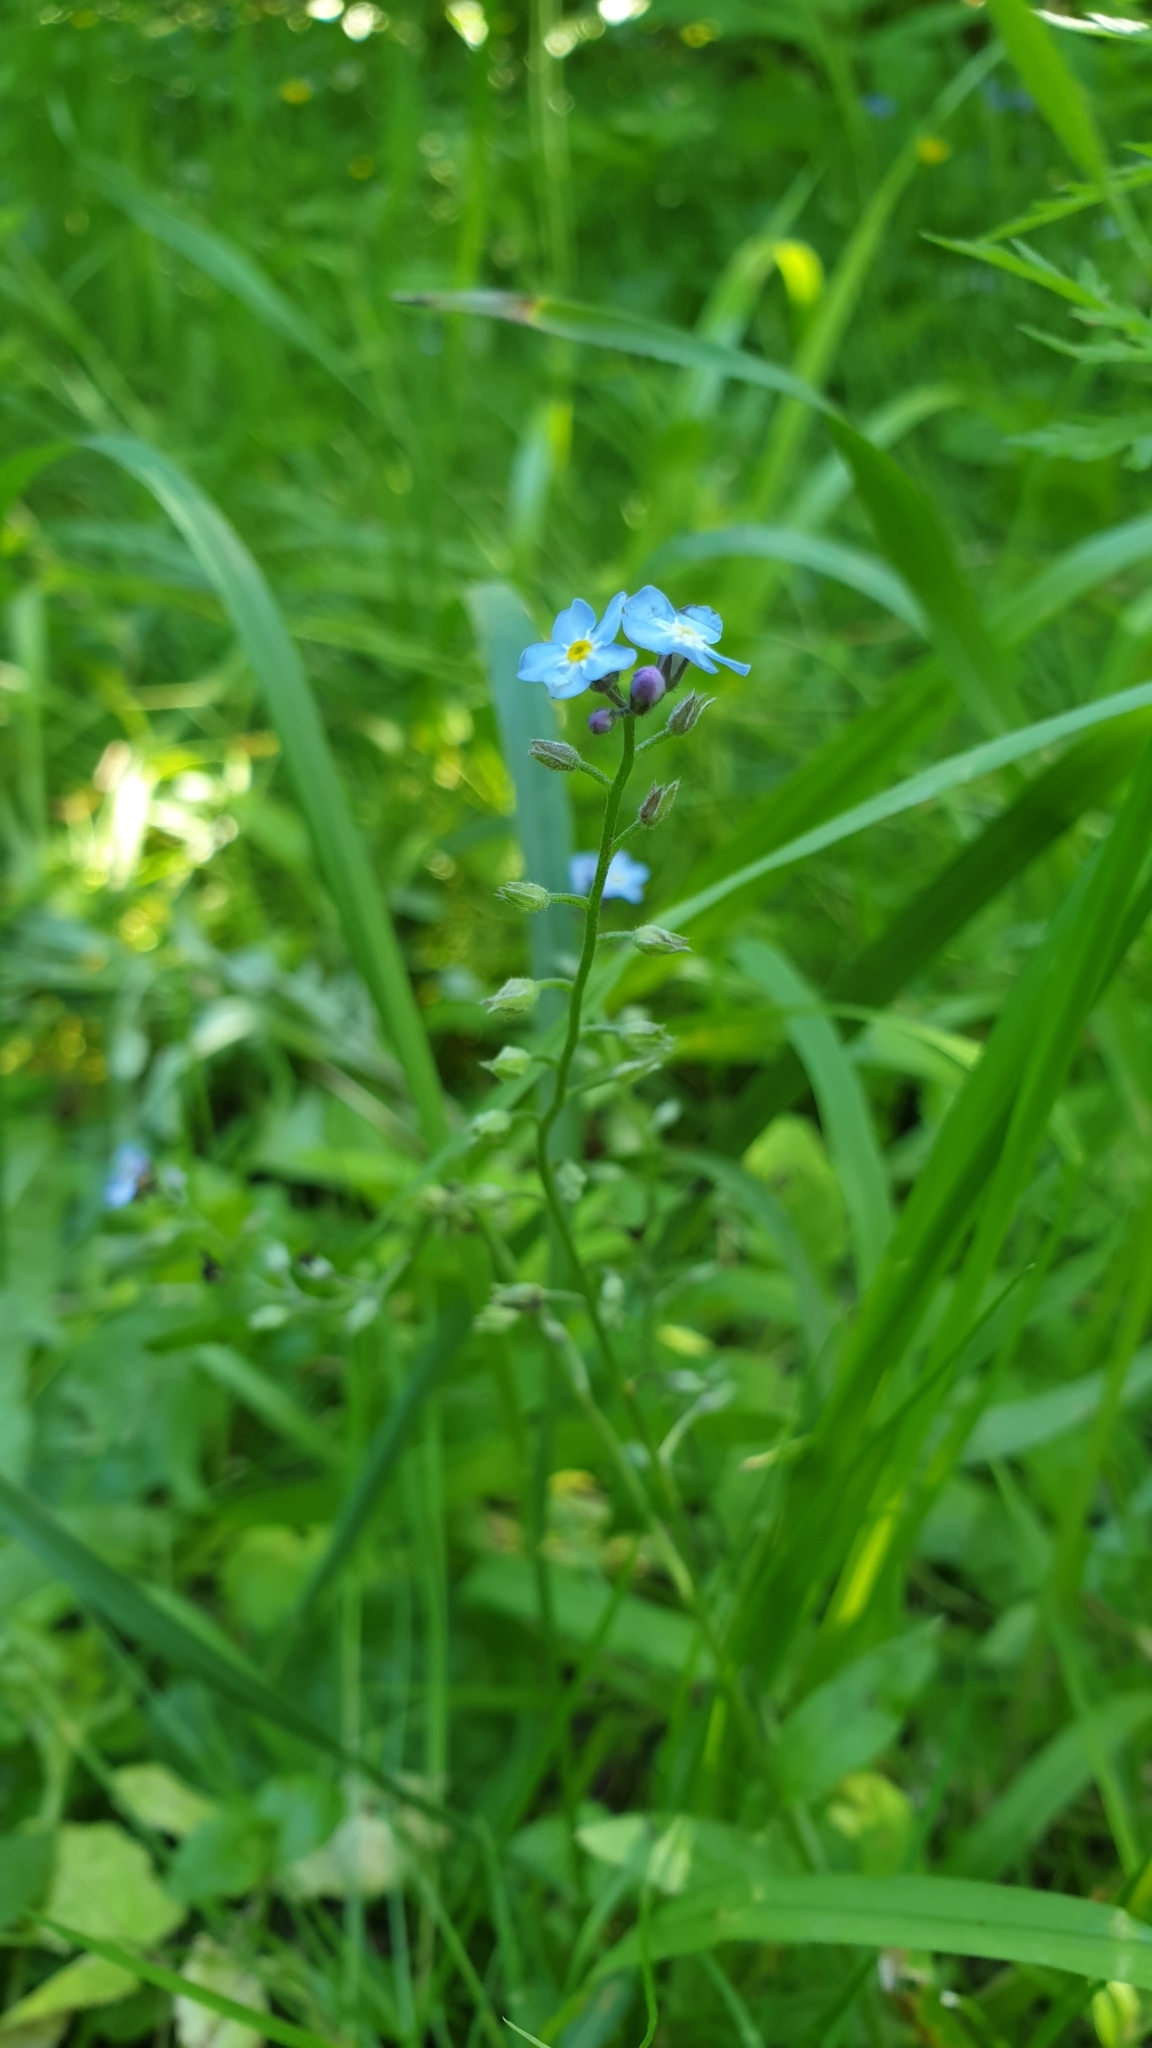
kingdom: Plantae
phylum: Tracheophyta
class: Magnoliopsida
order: Boraginales
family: Boraginaceae
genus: Myosotis
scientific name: Myosotis sylvatica
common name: Wood forget-me-not
